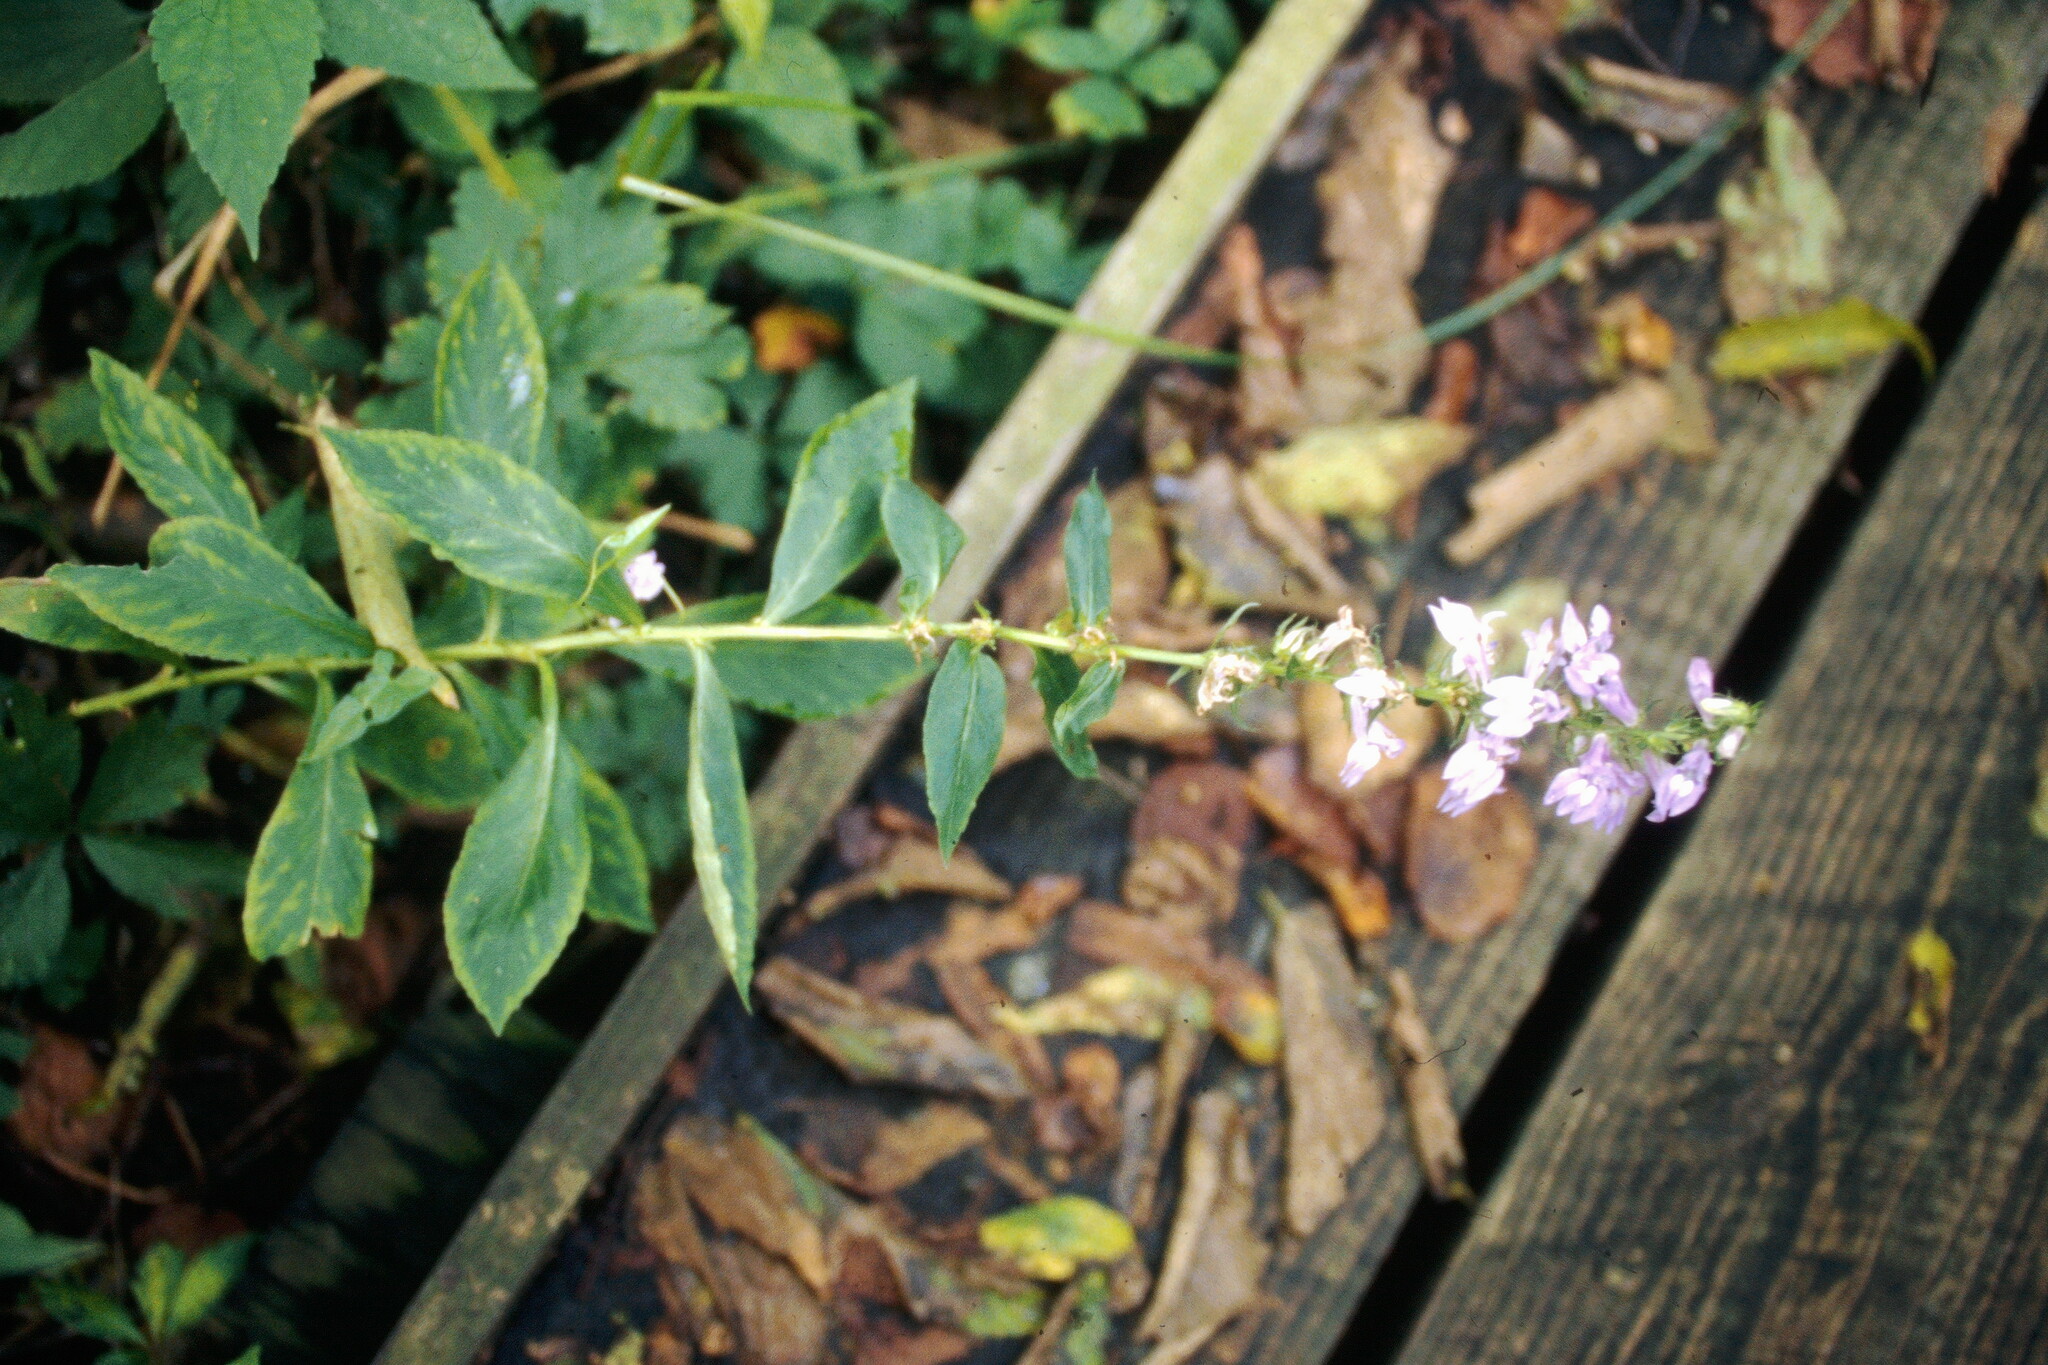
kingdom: Plantae
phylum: Tracheophyta
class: Magnoliopsida
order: Asterales
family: Campanulaceae
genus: Lobelia
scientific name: Lobelia siphilitica
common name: Great lobelia
